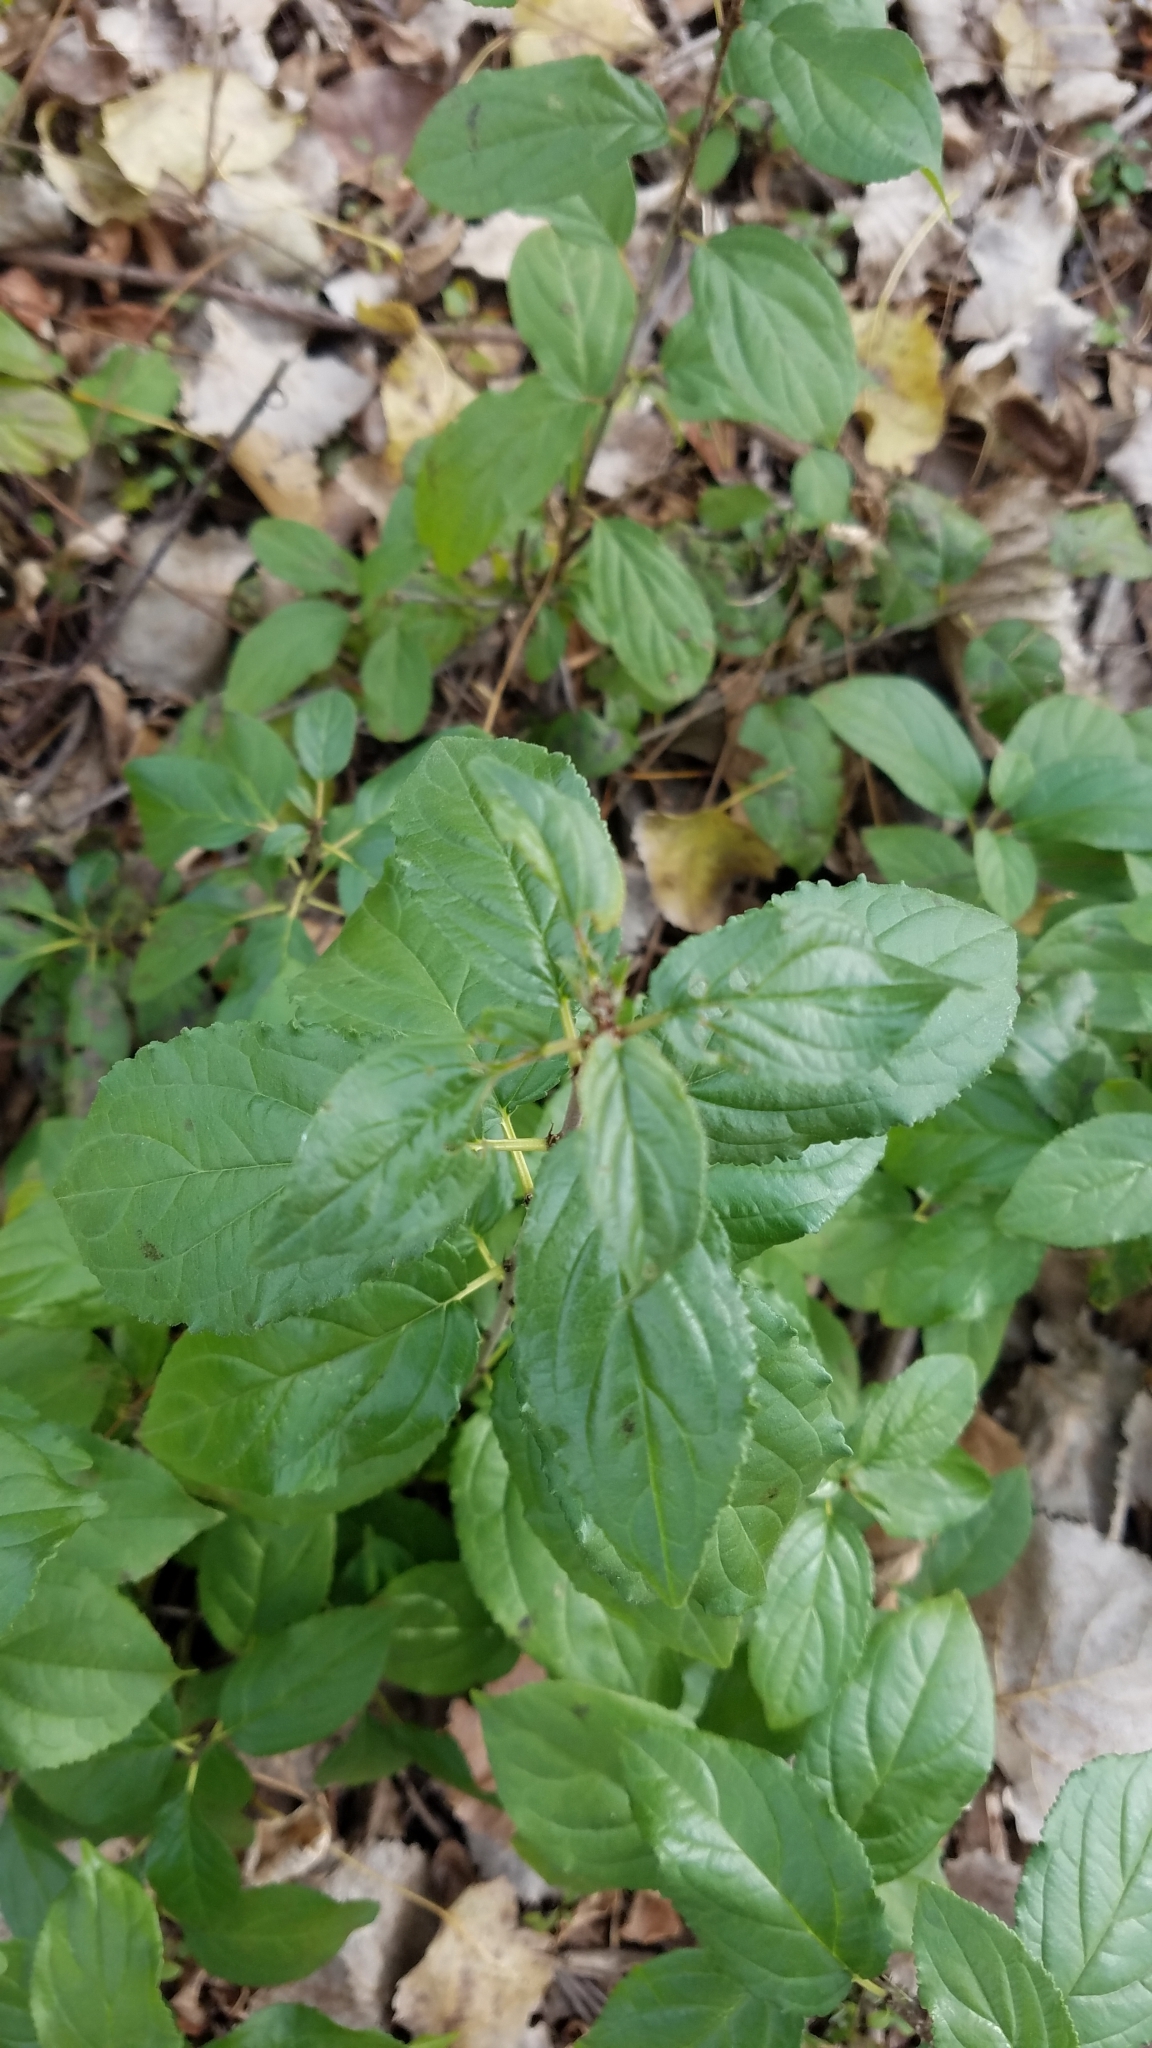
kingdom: Plantae
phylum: Tracheophyta
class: Magnoliopsida
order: Rosales
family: Rhamnaceae
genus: Rhamnus
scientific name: Rhamnus cathartica
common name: Common buckthorn
